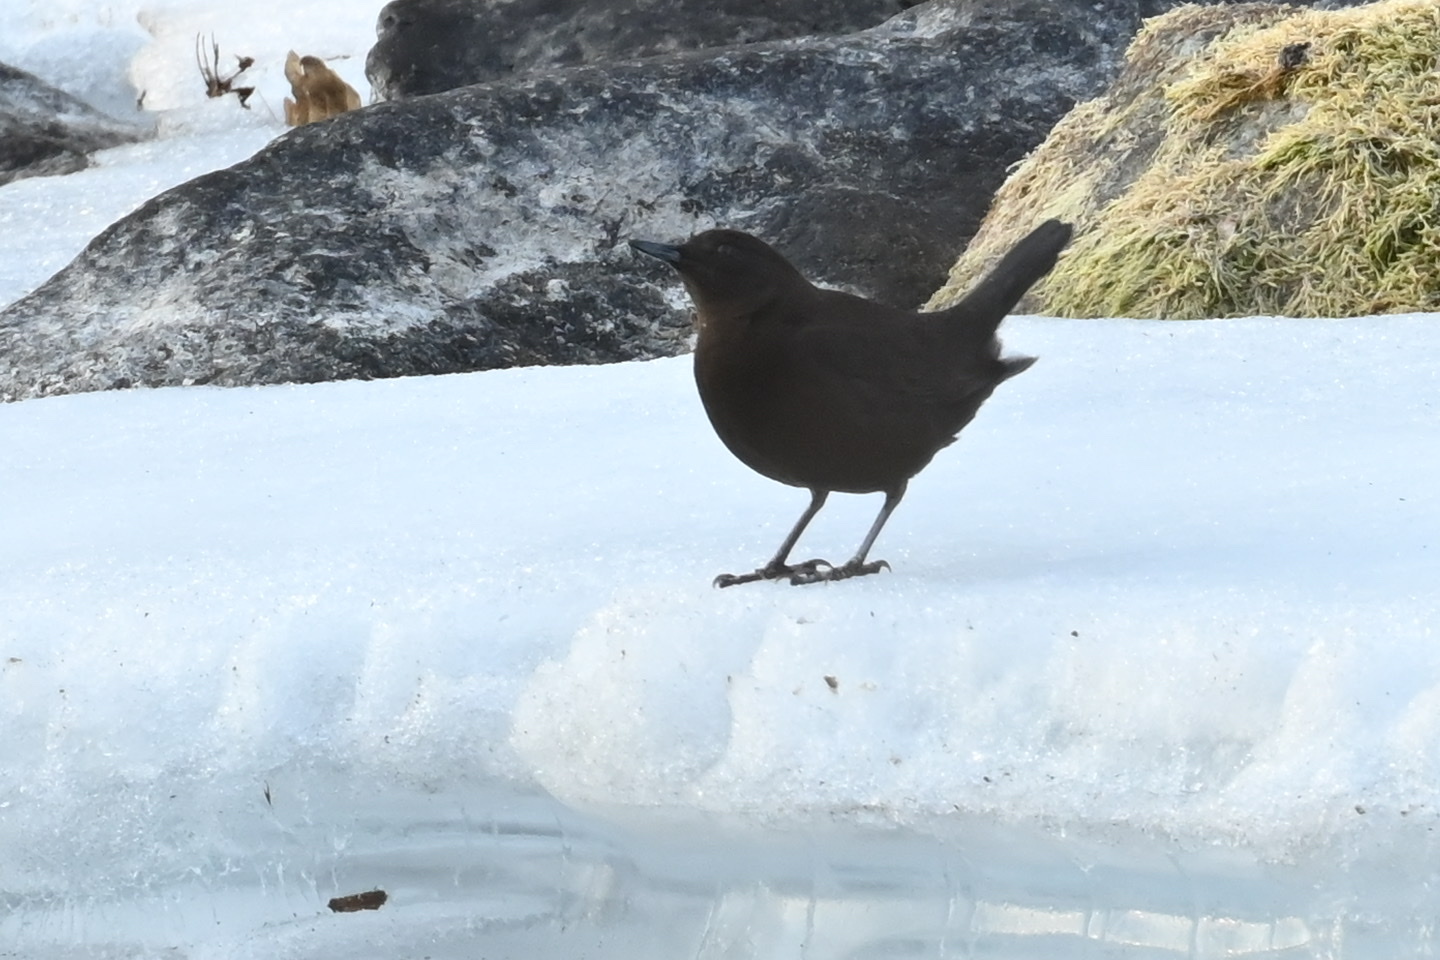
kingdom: Animalia
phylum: Chordata
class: Aves
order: Passeriformes
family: Cinclidae
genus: Cinclus
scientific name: Cinclus pallasii
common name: Brown dipper
